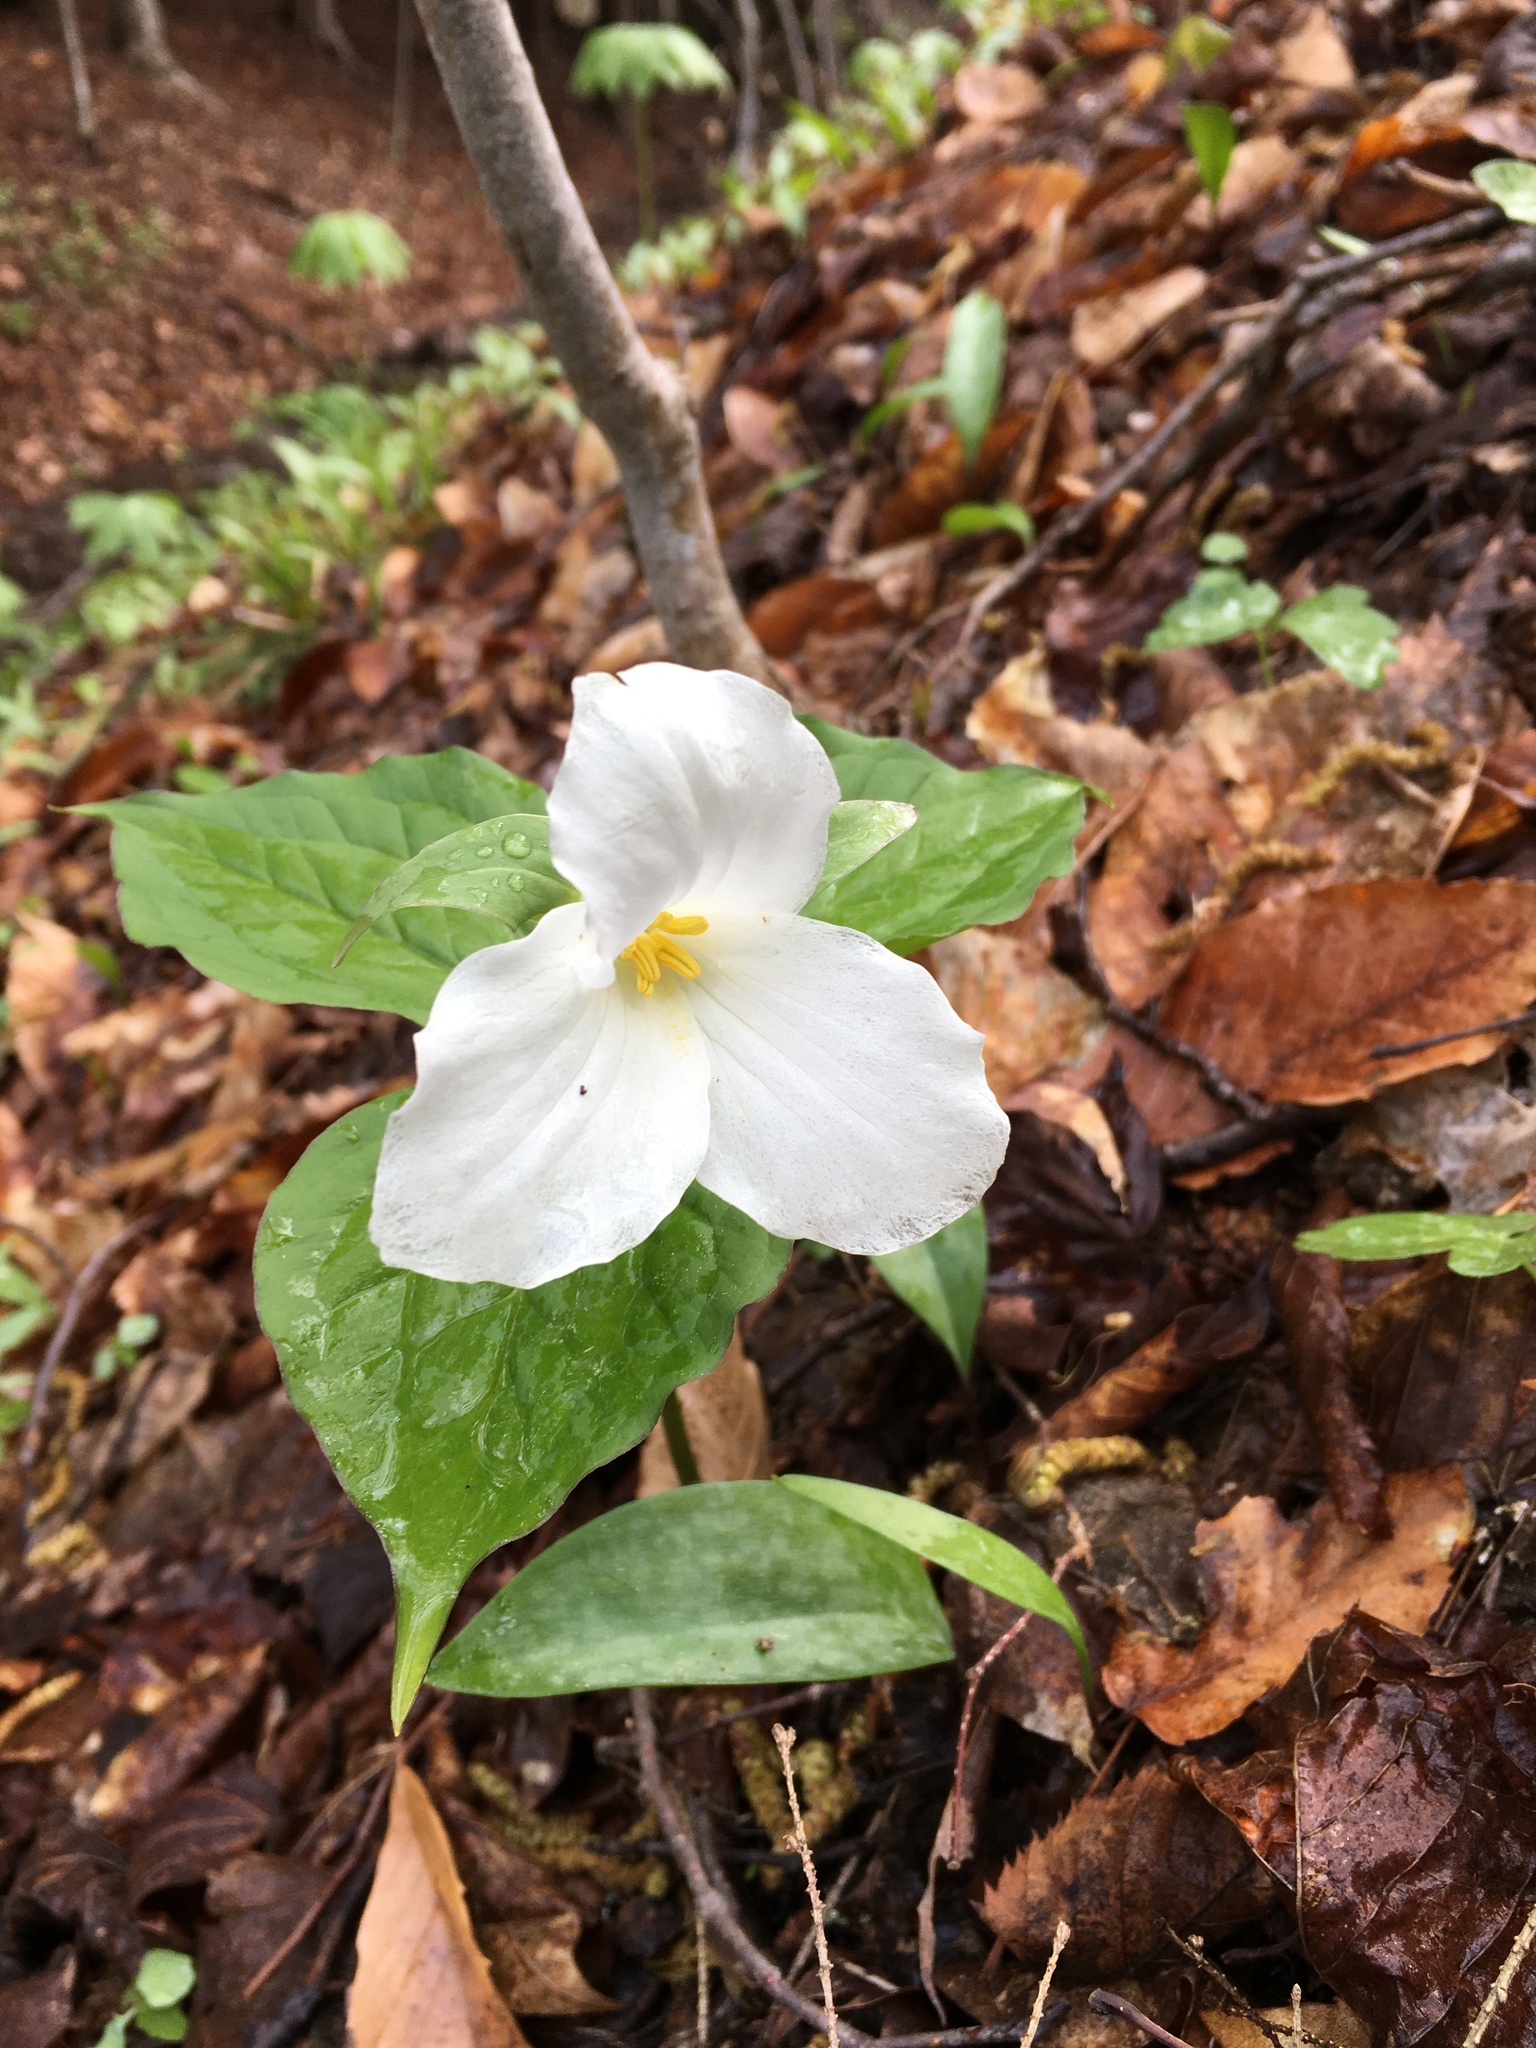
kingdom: Plantae
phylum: Tracheophyta
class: Liliopsida
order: Liliales
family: Melanthiaceae
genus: Trillium
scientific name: Trillium grandiflorum
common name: Great white trillium
